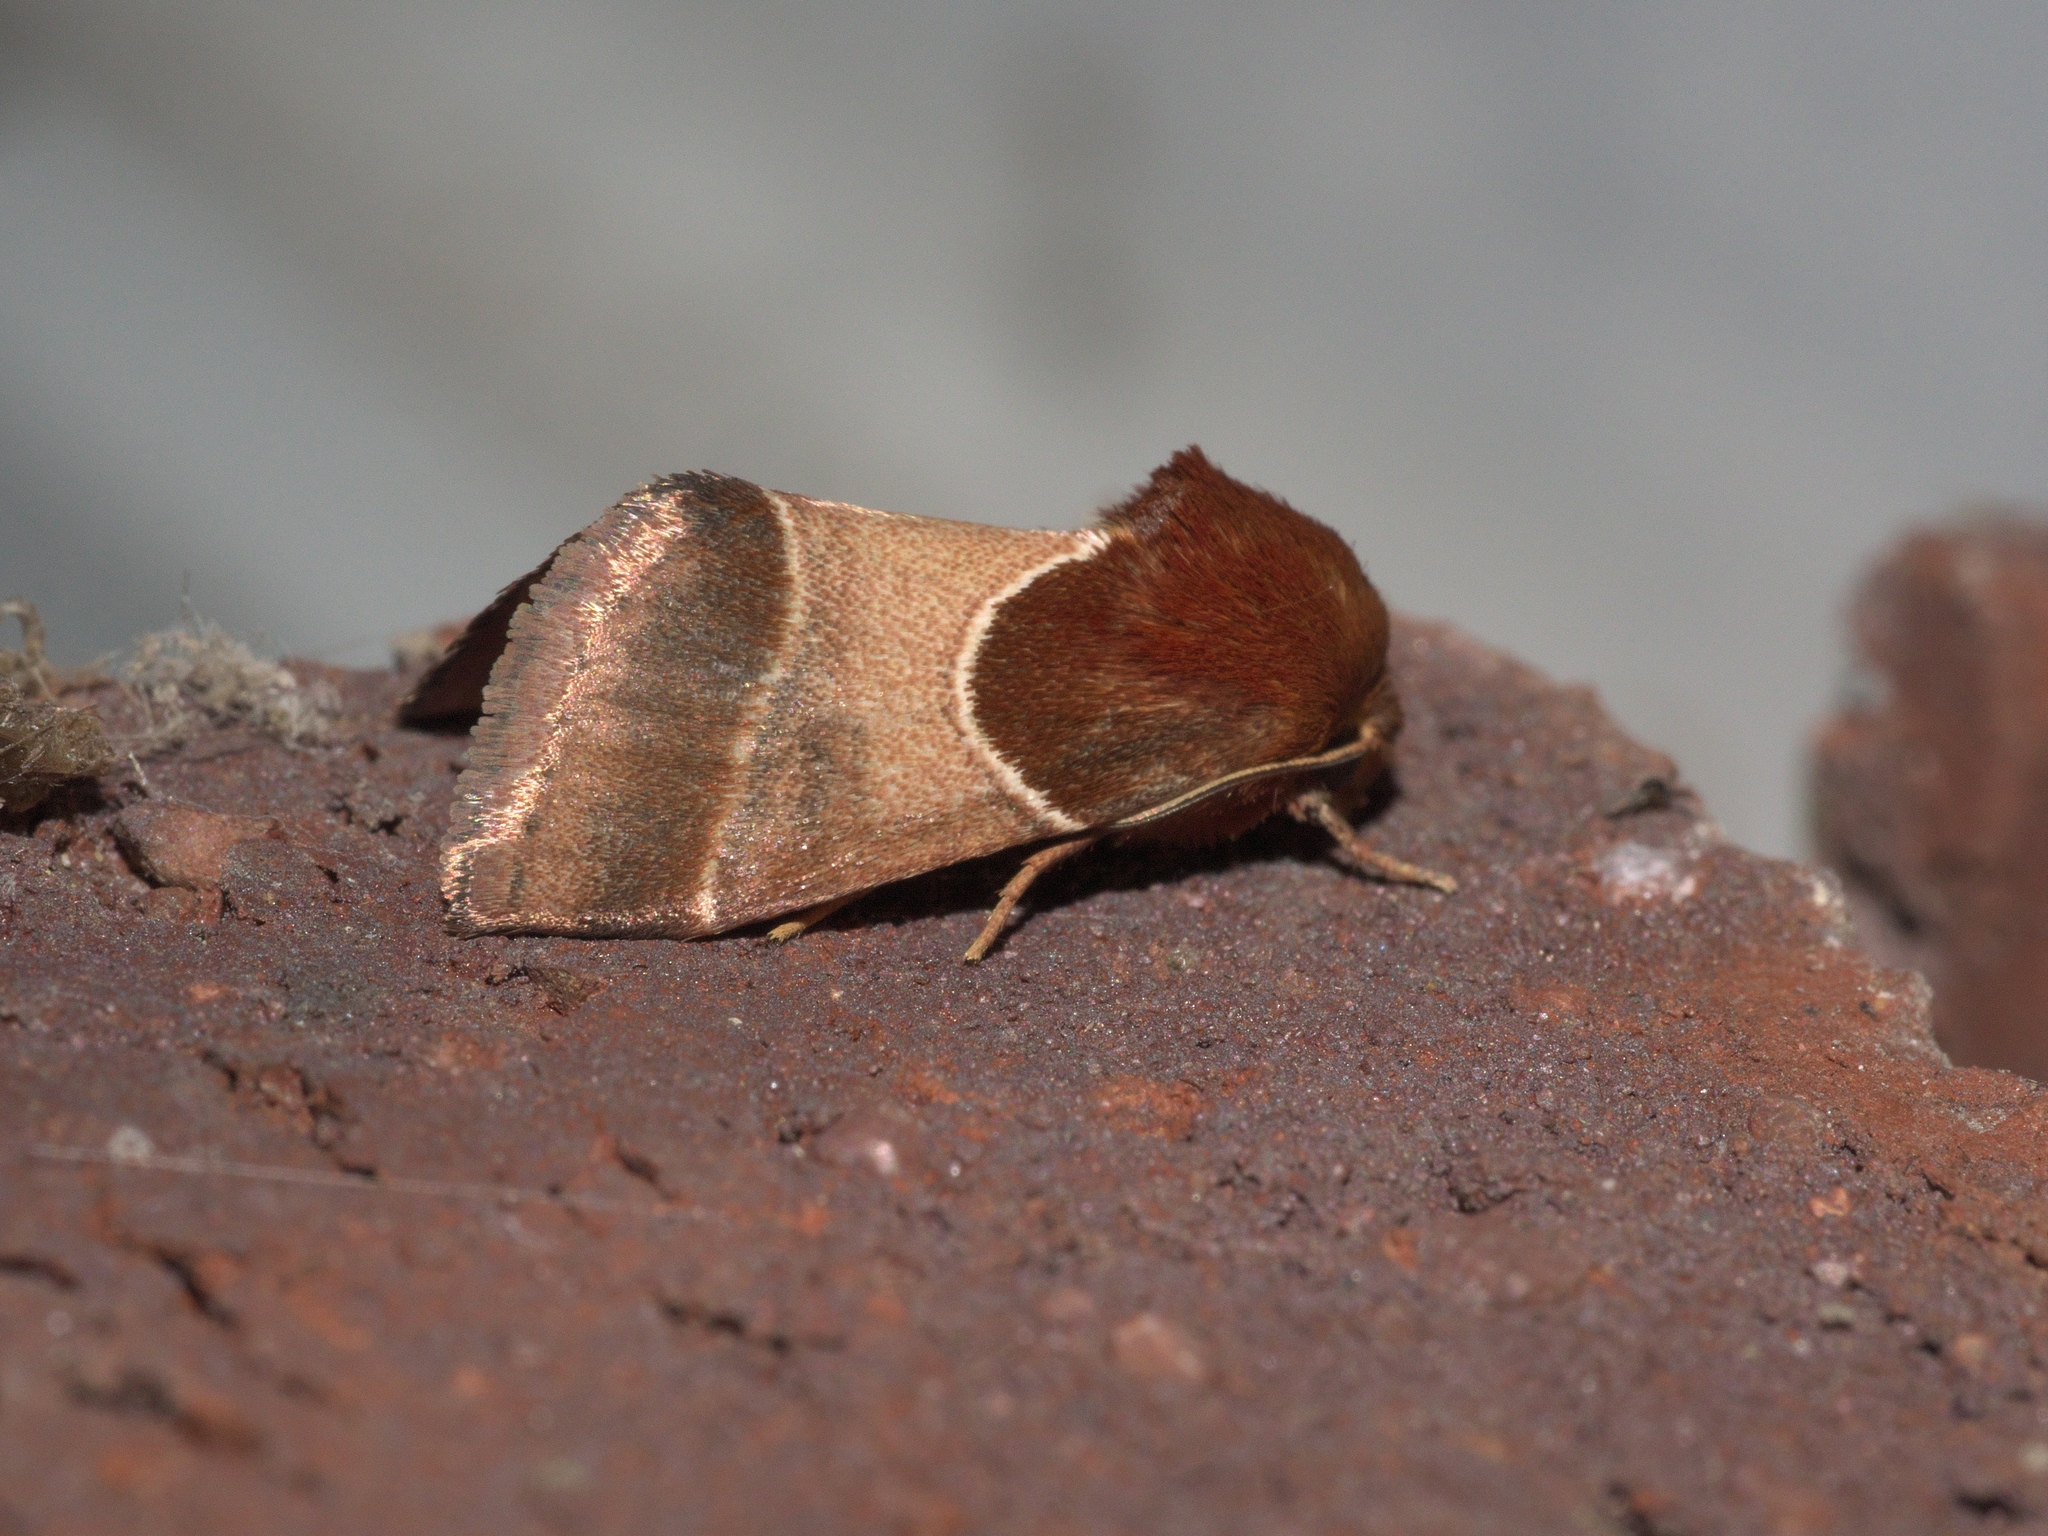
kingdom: Animalia
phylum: Arthropoda
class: Insecta
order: Lepidoptera
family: Noctuidae
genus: Schinia
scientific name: Schinia arcigera
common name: Arcigera flower moth
